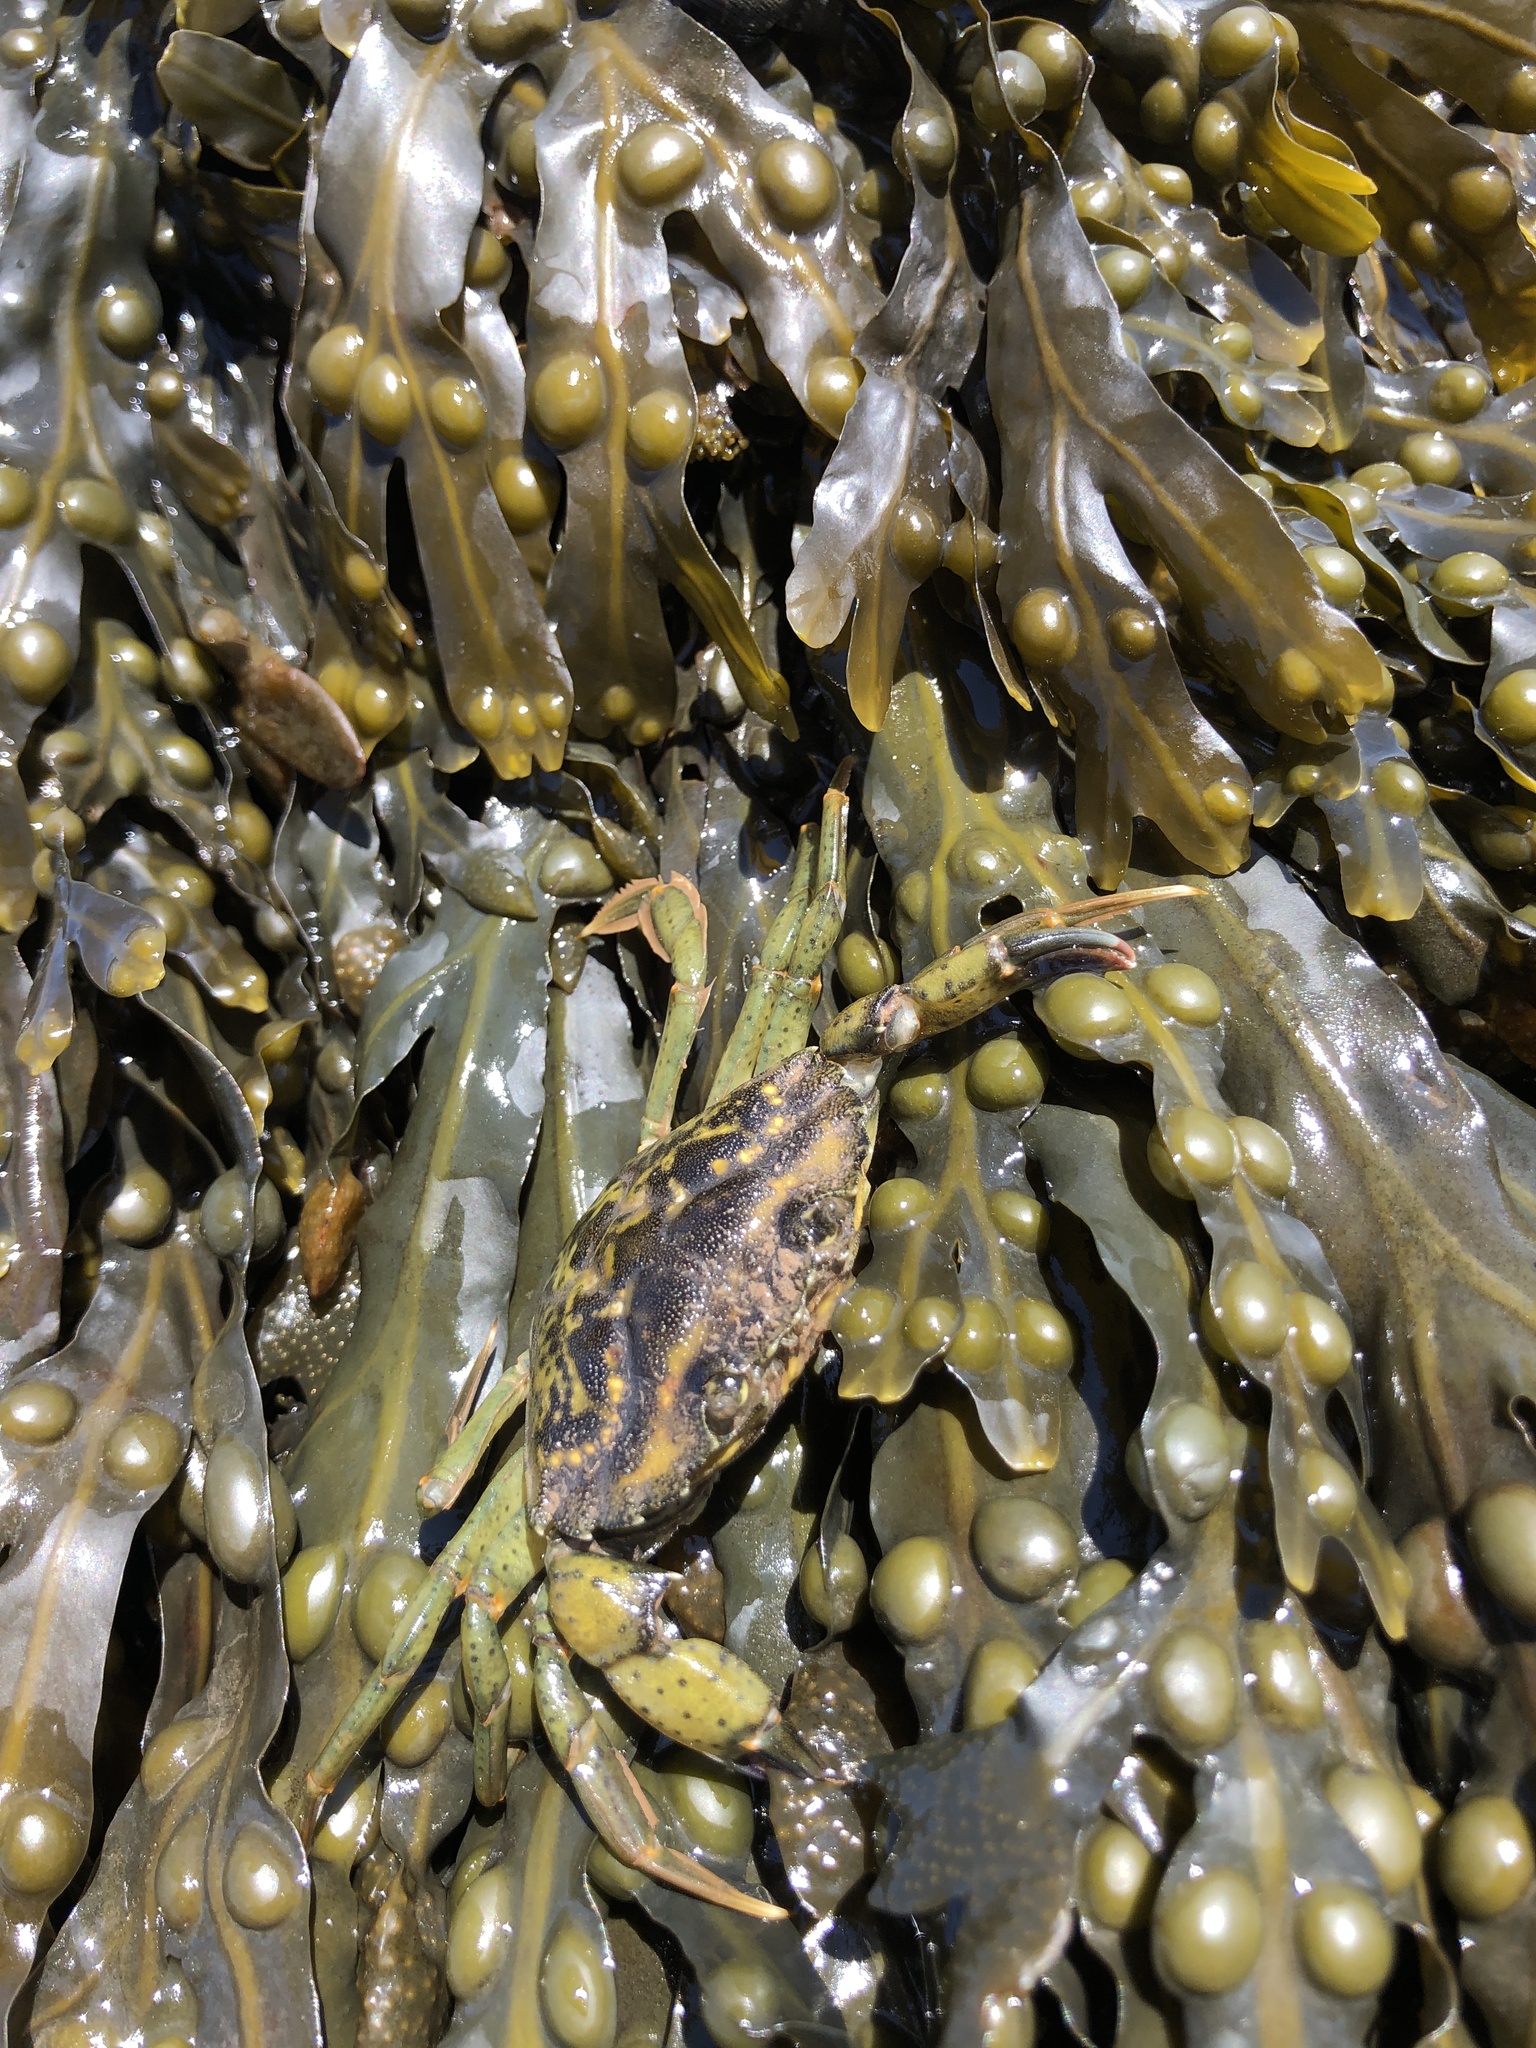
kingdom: Animalia
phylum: Arthropoda
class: Malacostraca
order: Decapoda
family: Carcinidae
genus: Carcinus
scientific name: Carcinus maenas
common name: European green crab
